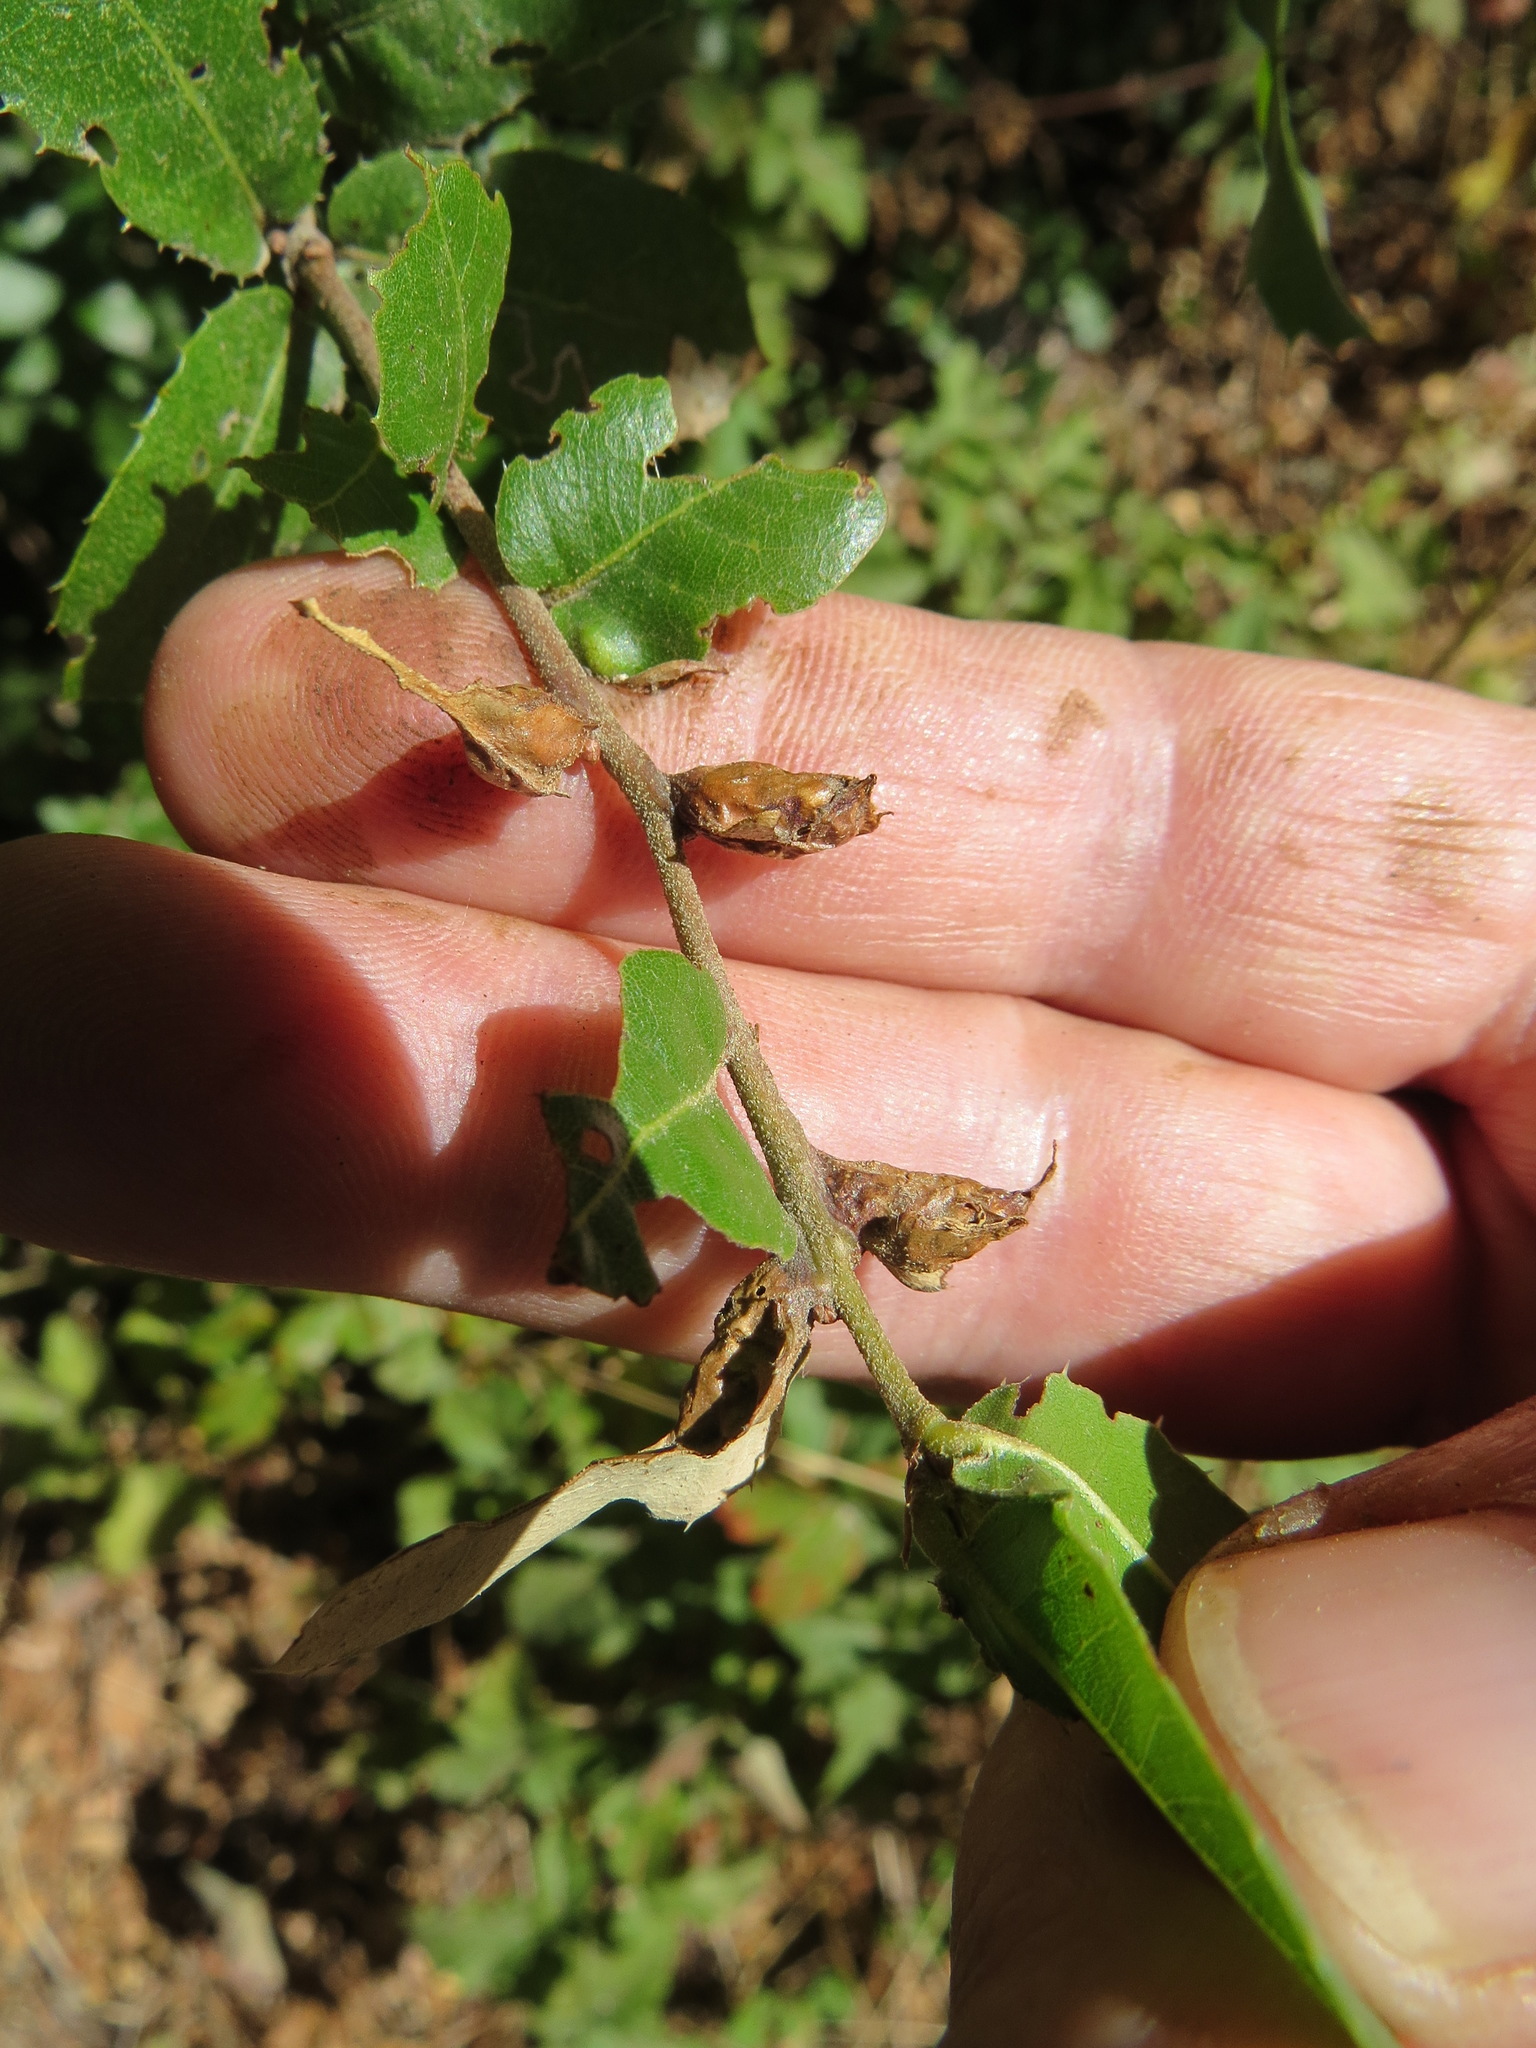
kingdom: Animalia
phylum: Arthropoda
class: Insecta
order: Hymenoptera
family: Cynipidae
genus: Melikaiella
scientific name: Melikaiella
